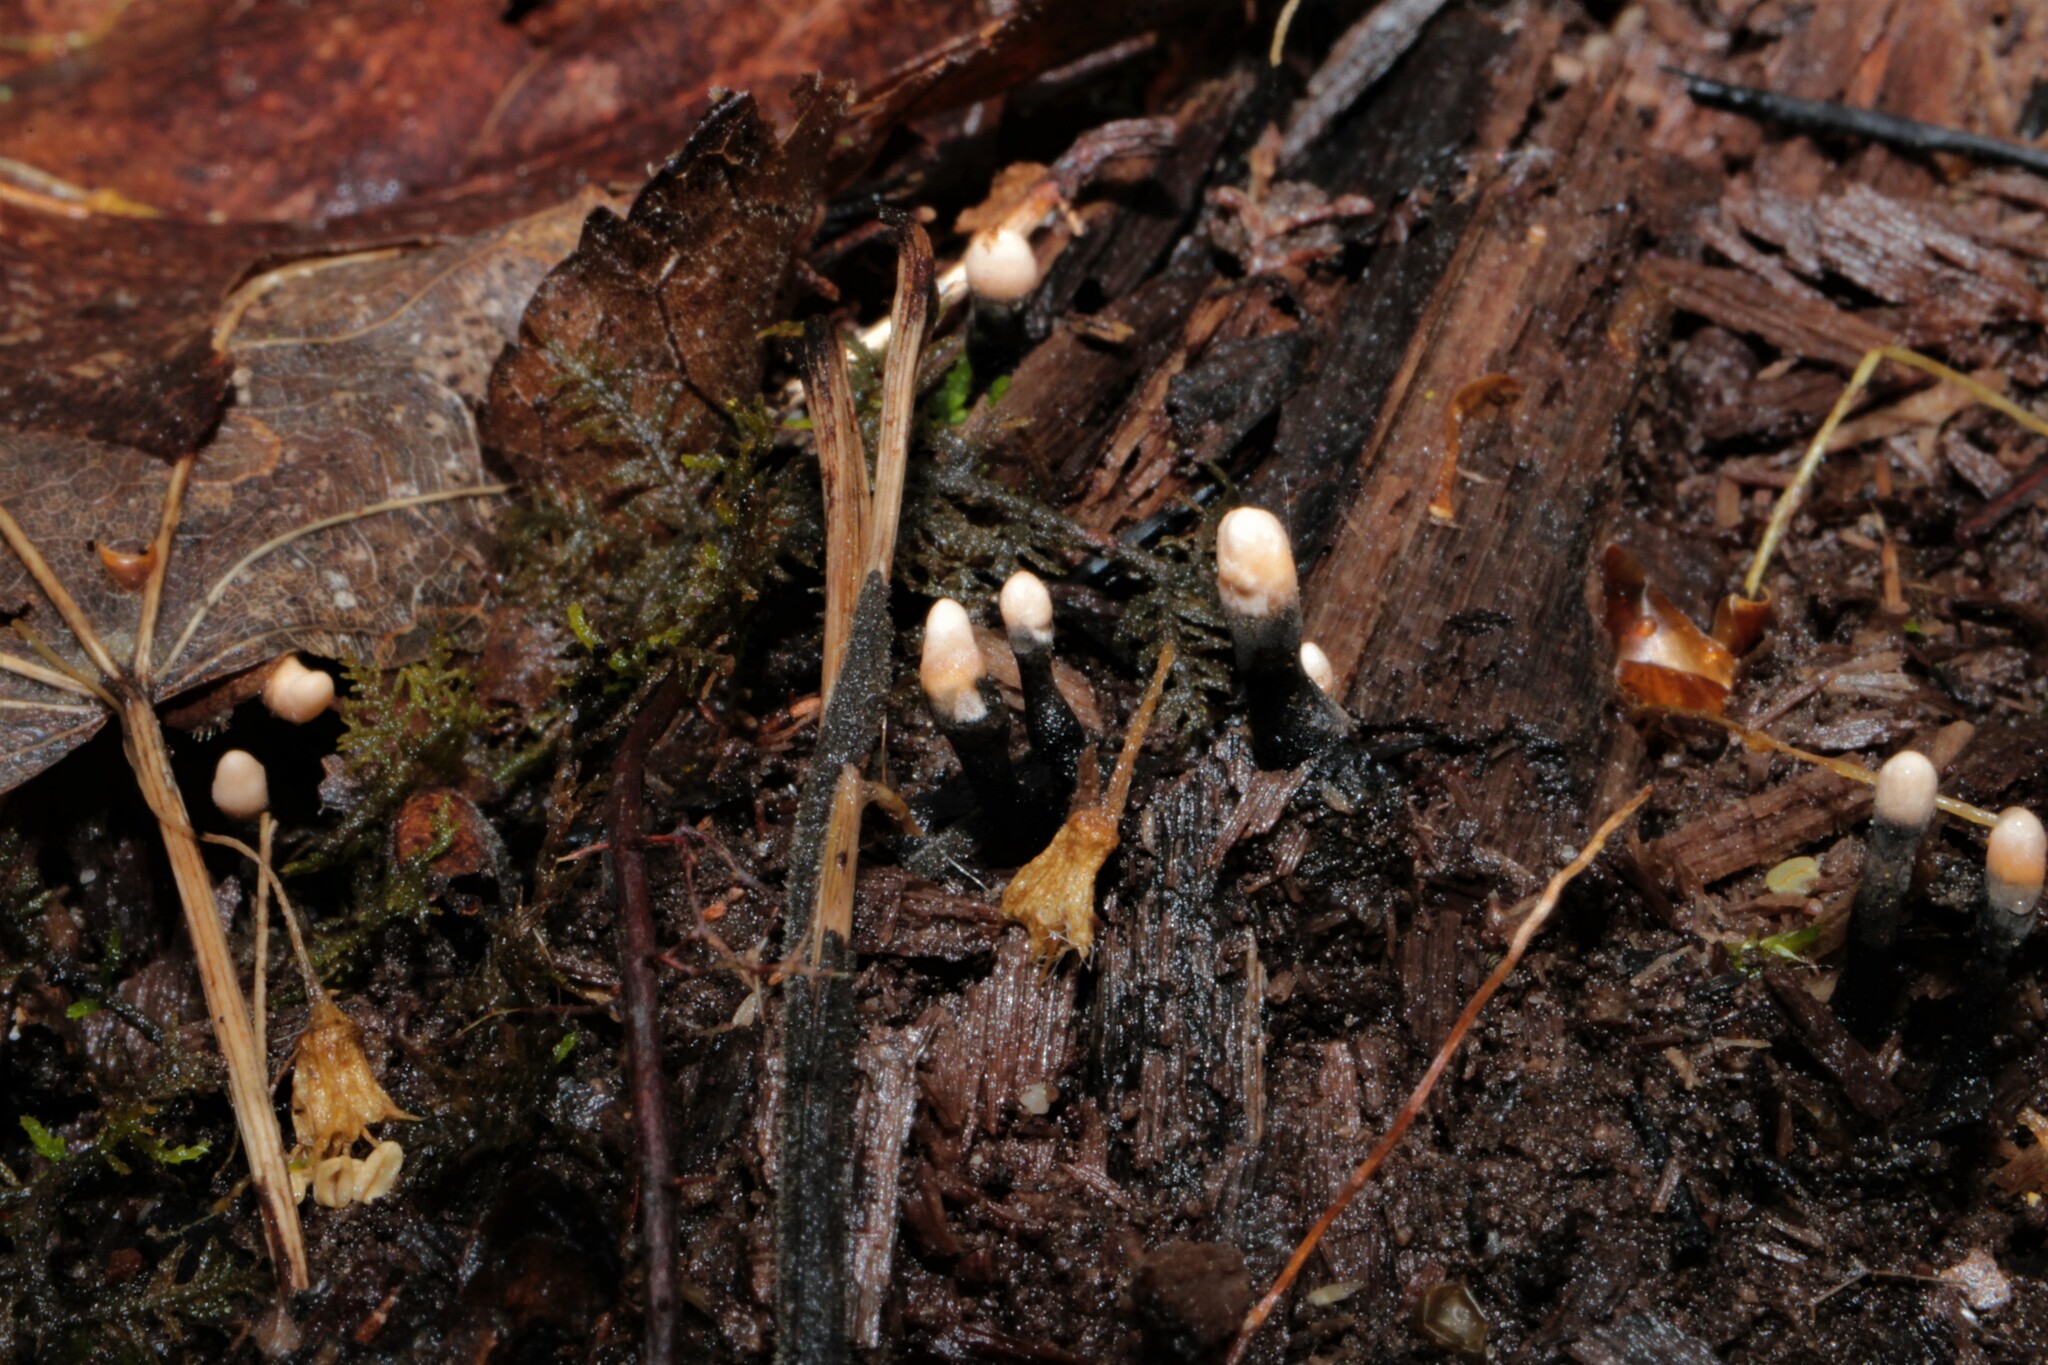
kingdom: Fungi
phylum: Ascomycota
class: Sordariomycetes
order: Xylariales
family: Xylariaceae
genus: Xylaria
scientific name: Xylaria vasconica
